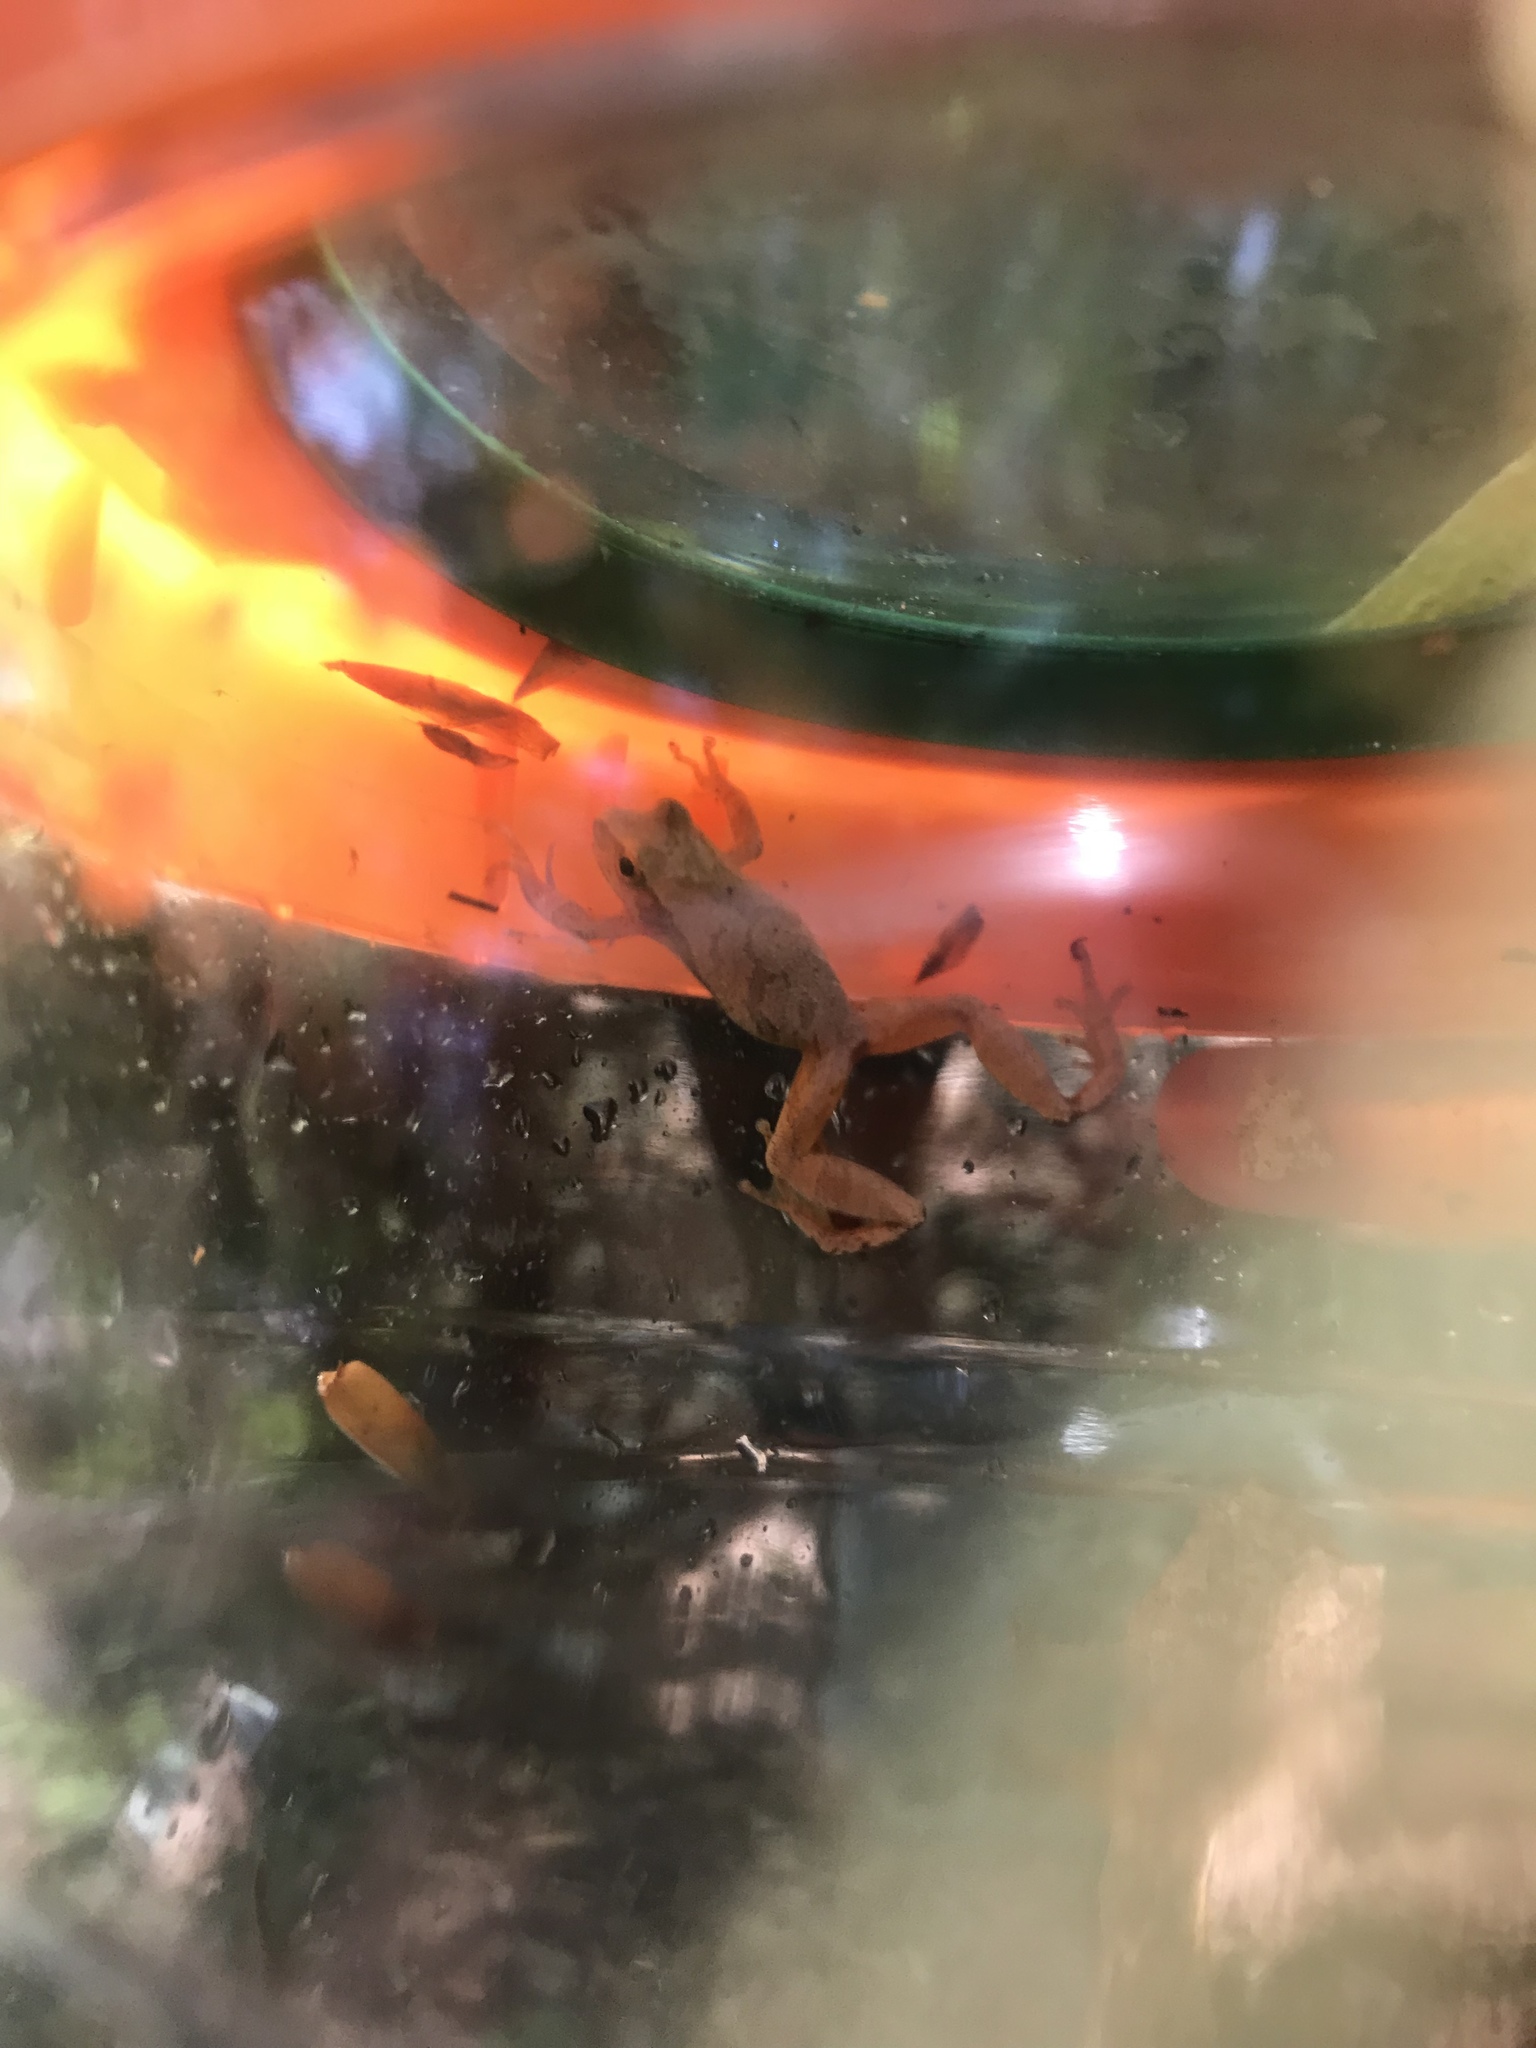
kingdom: Animalia
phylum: Chordata
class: Amphibia
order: Anura
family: Hylidae
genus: Pseudacris
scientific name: Pseudacris crucifer
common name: Spring peeper
